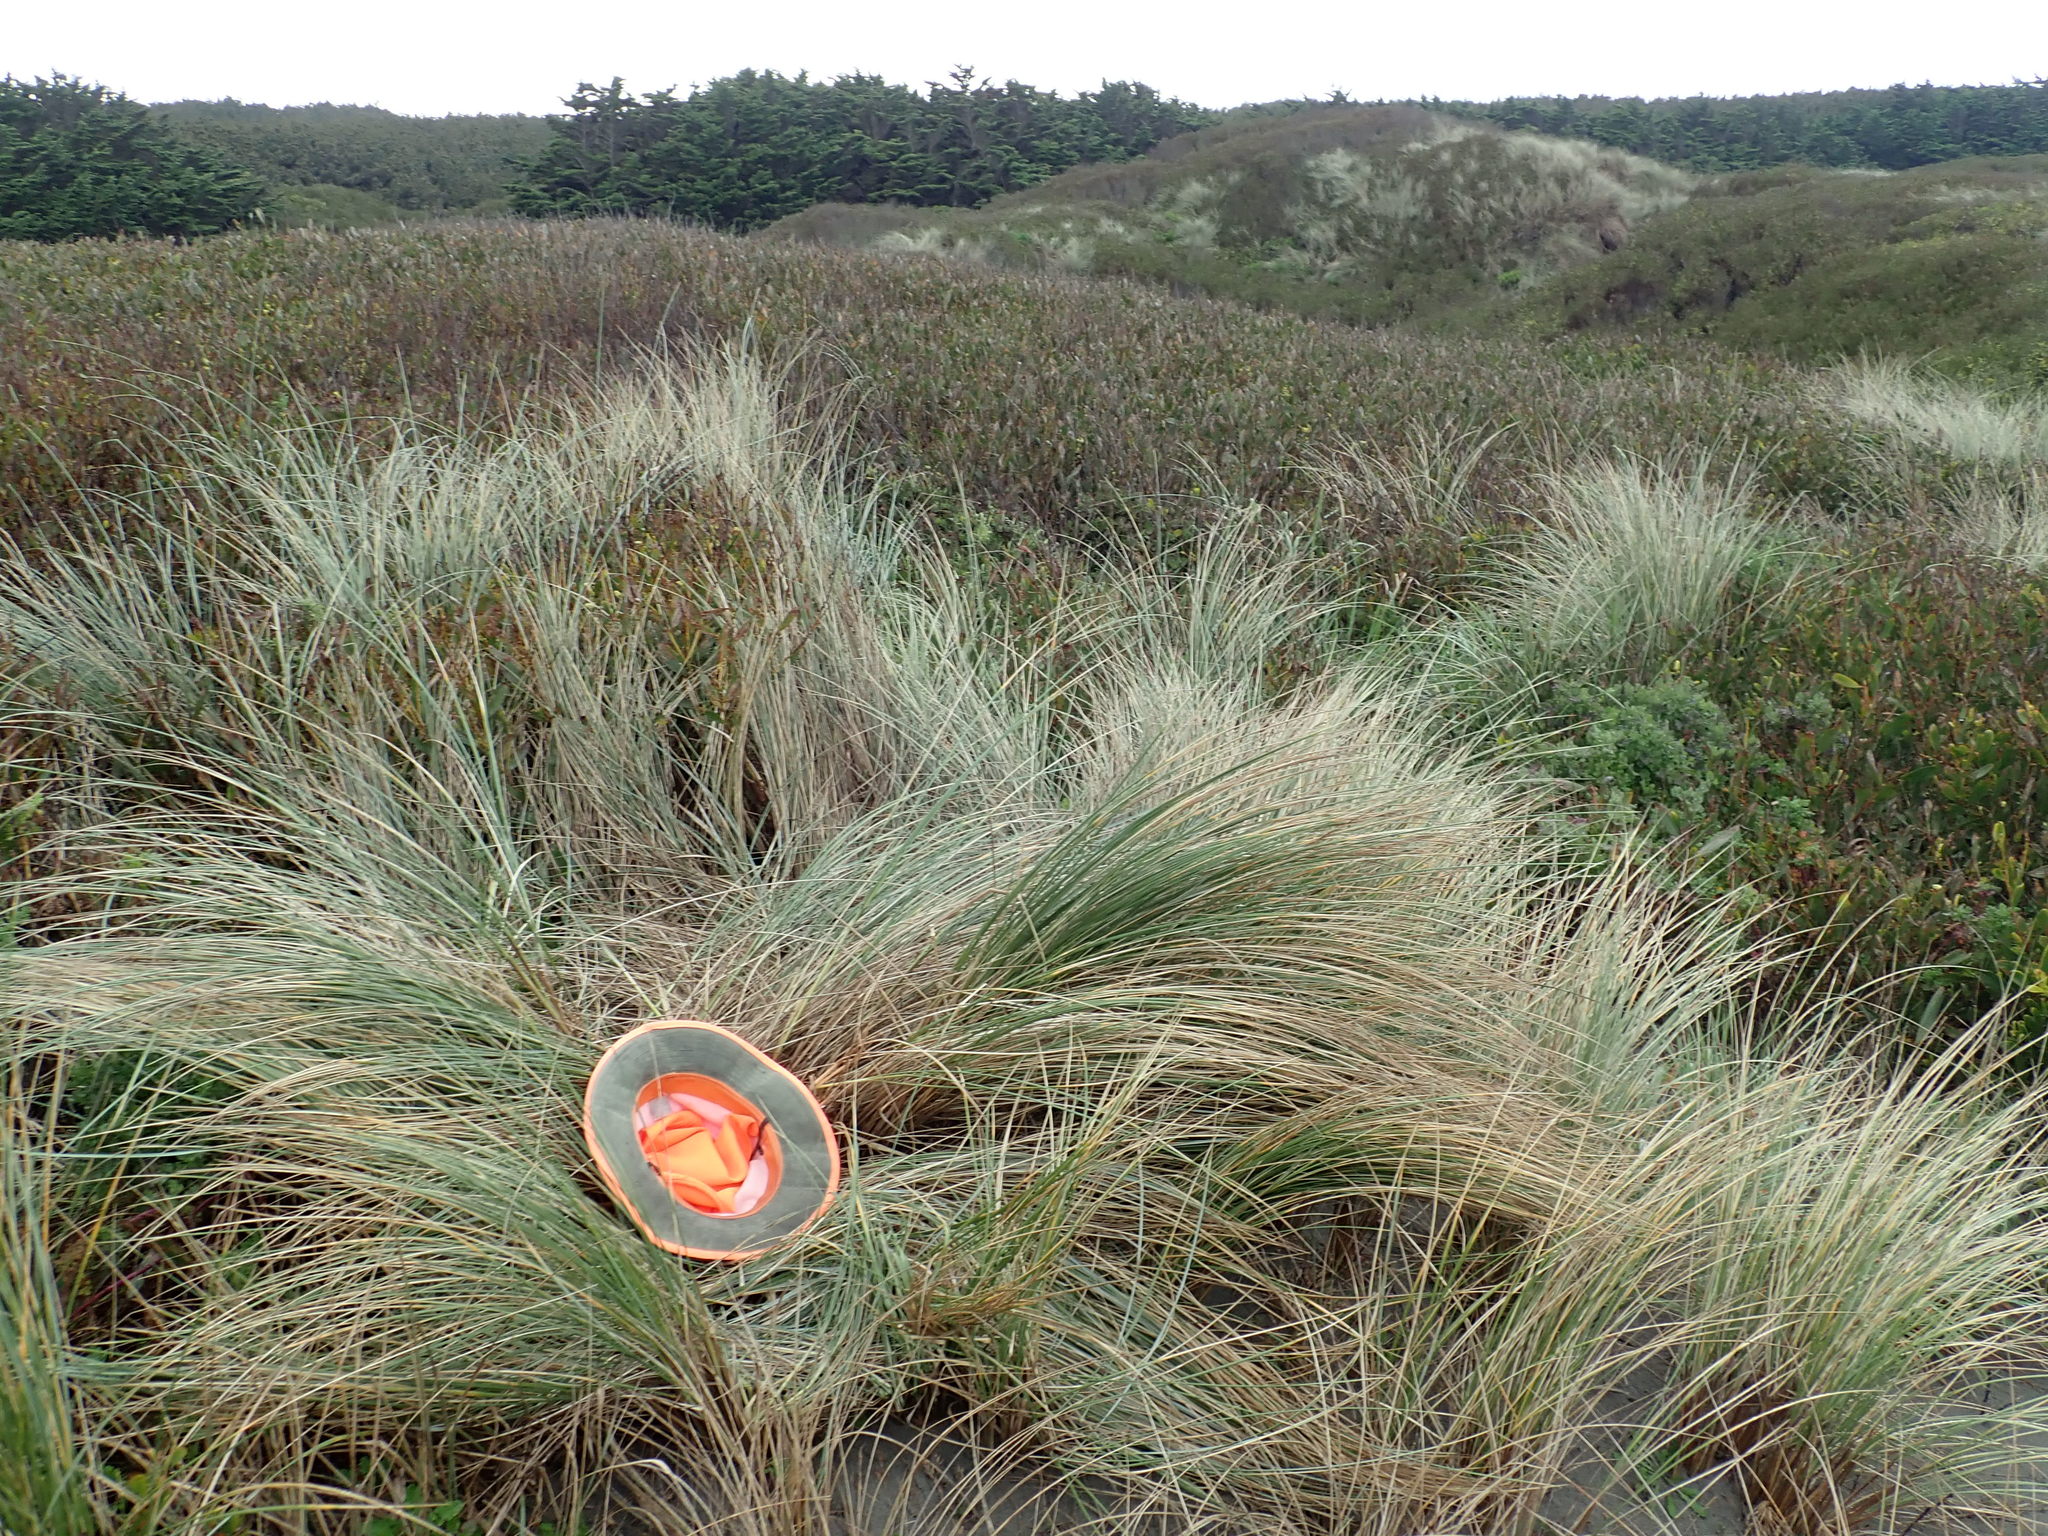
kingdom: Animalia
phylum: Arthropoda
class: Arachnida
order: Araneae
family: Mimetidae
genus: Australomimetus
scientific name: Australomimetus hartleyensis
